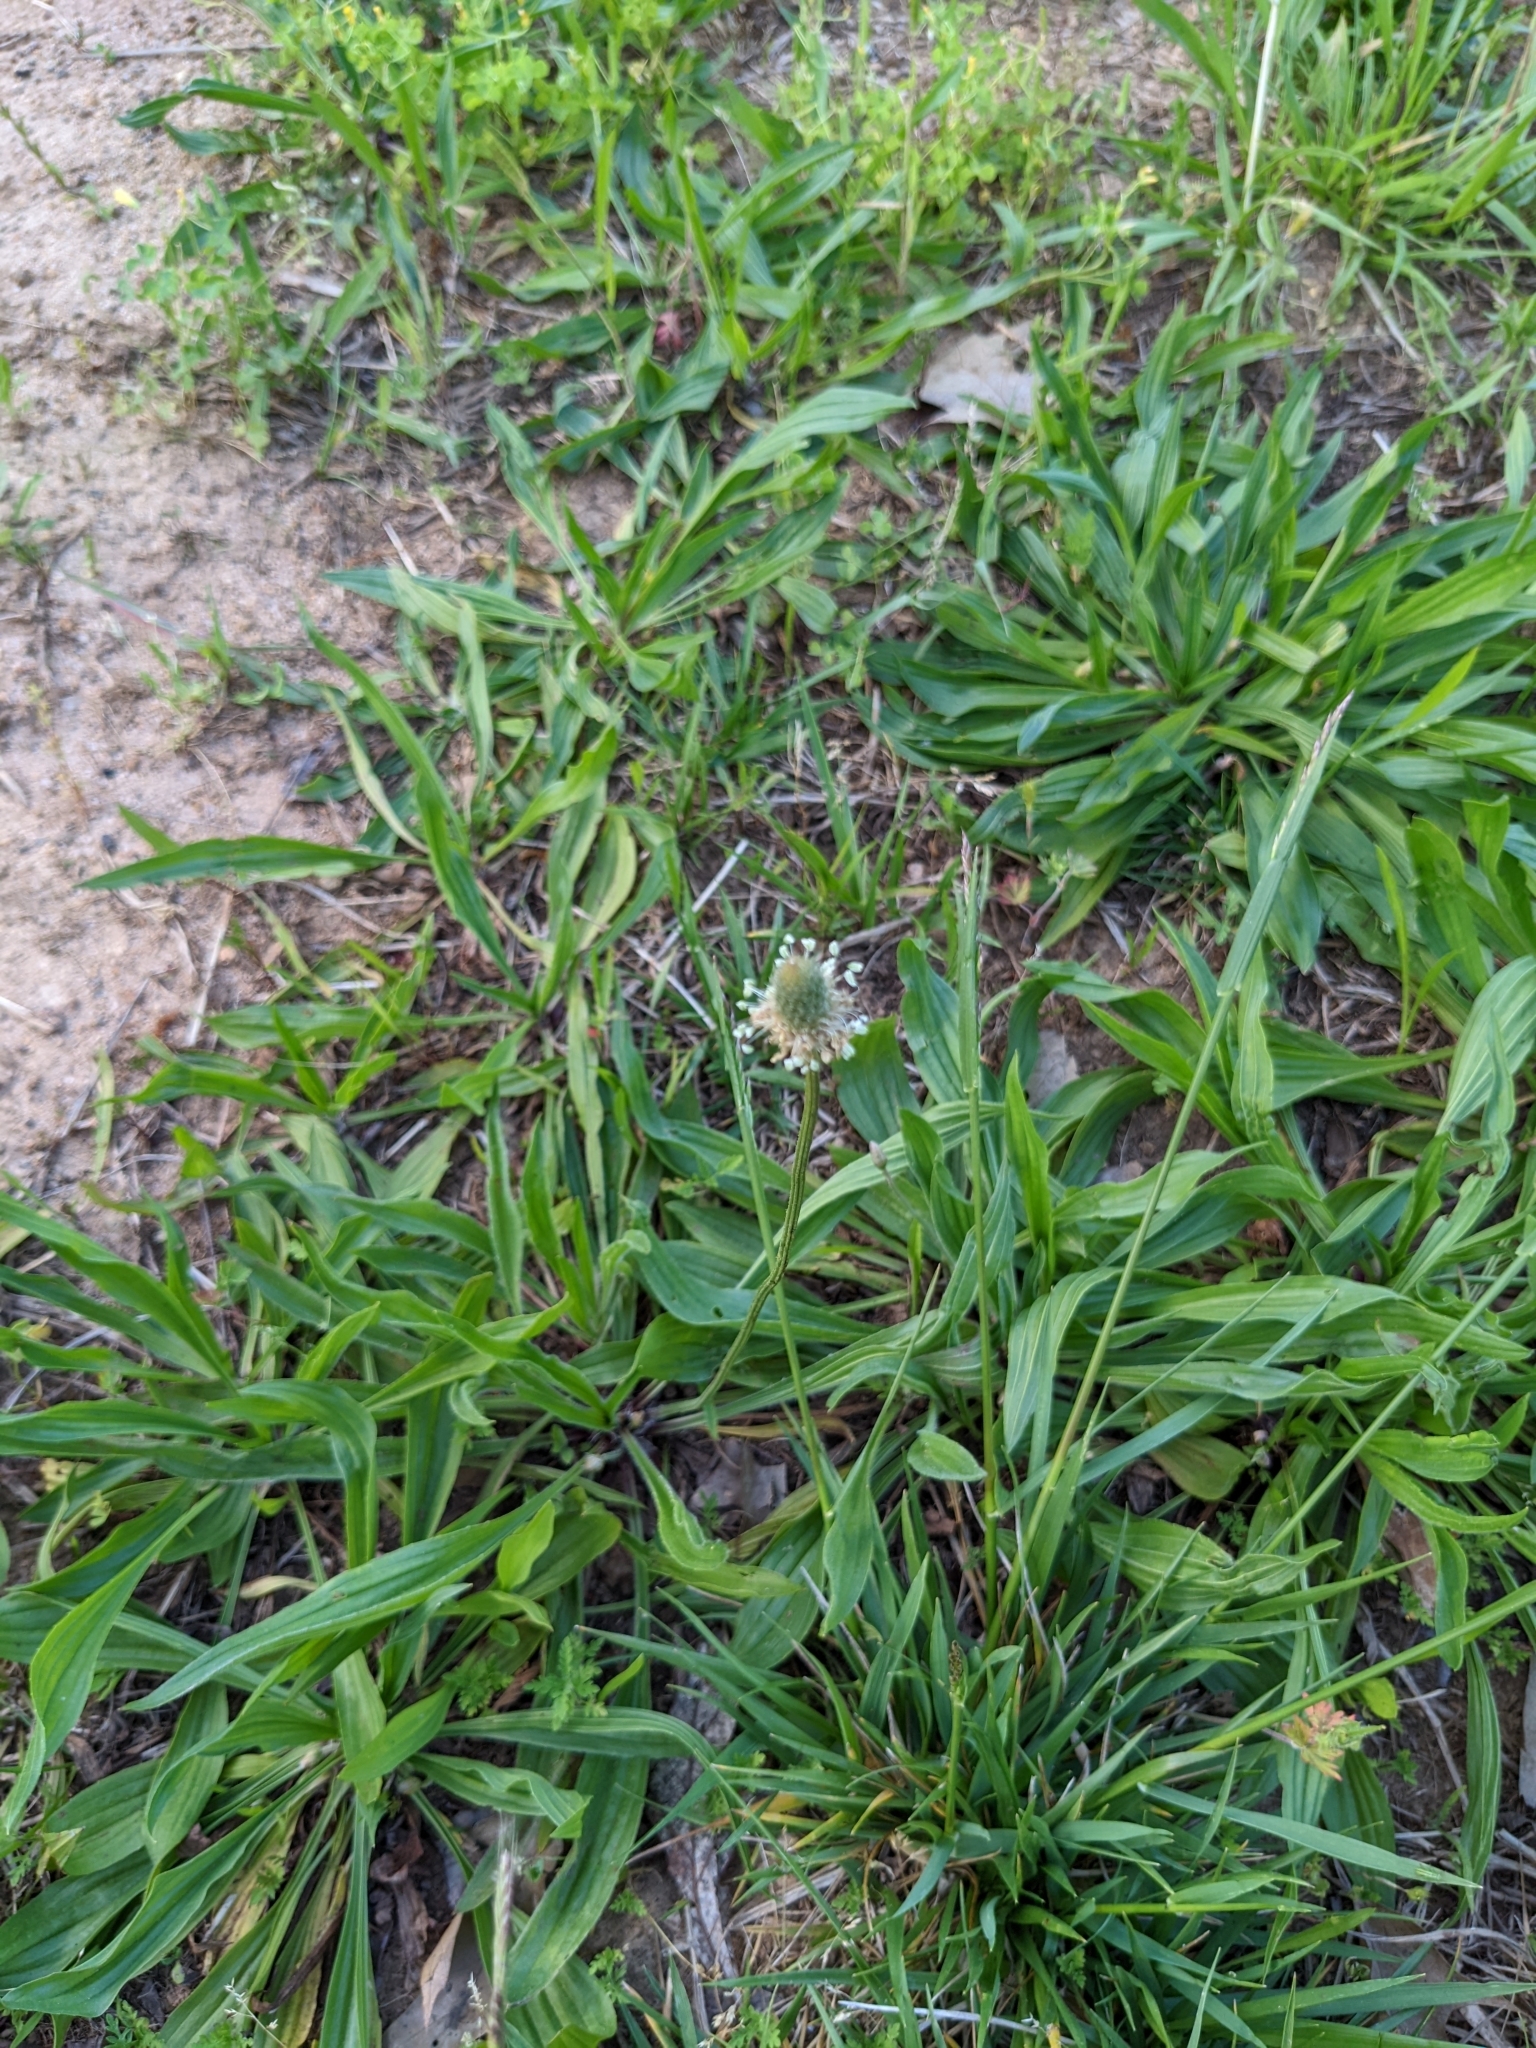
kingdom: Plantae
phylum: Tracheophyta
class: Magnoliopsida
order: Lamiales
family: Plantaginaceae
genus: Plantago
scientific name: Plantago lanceolata
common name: Ribwort plantain
